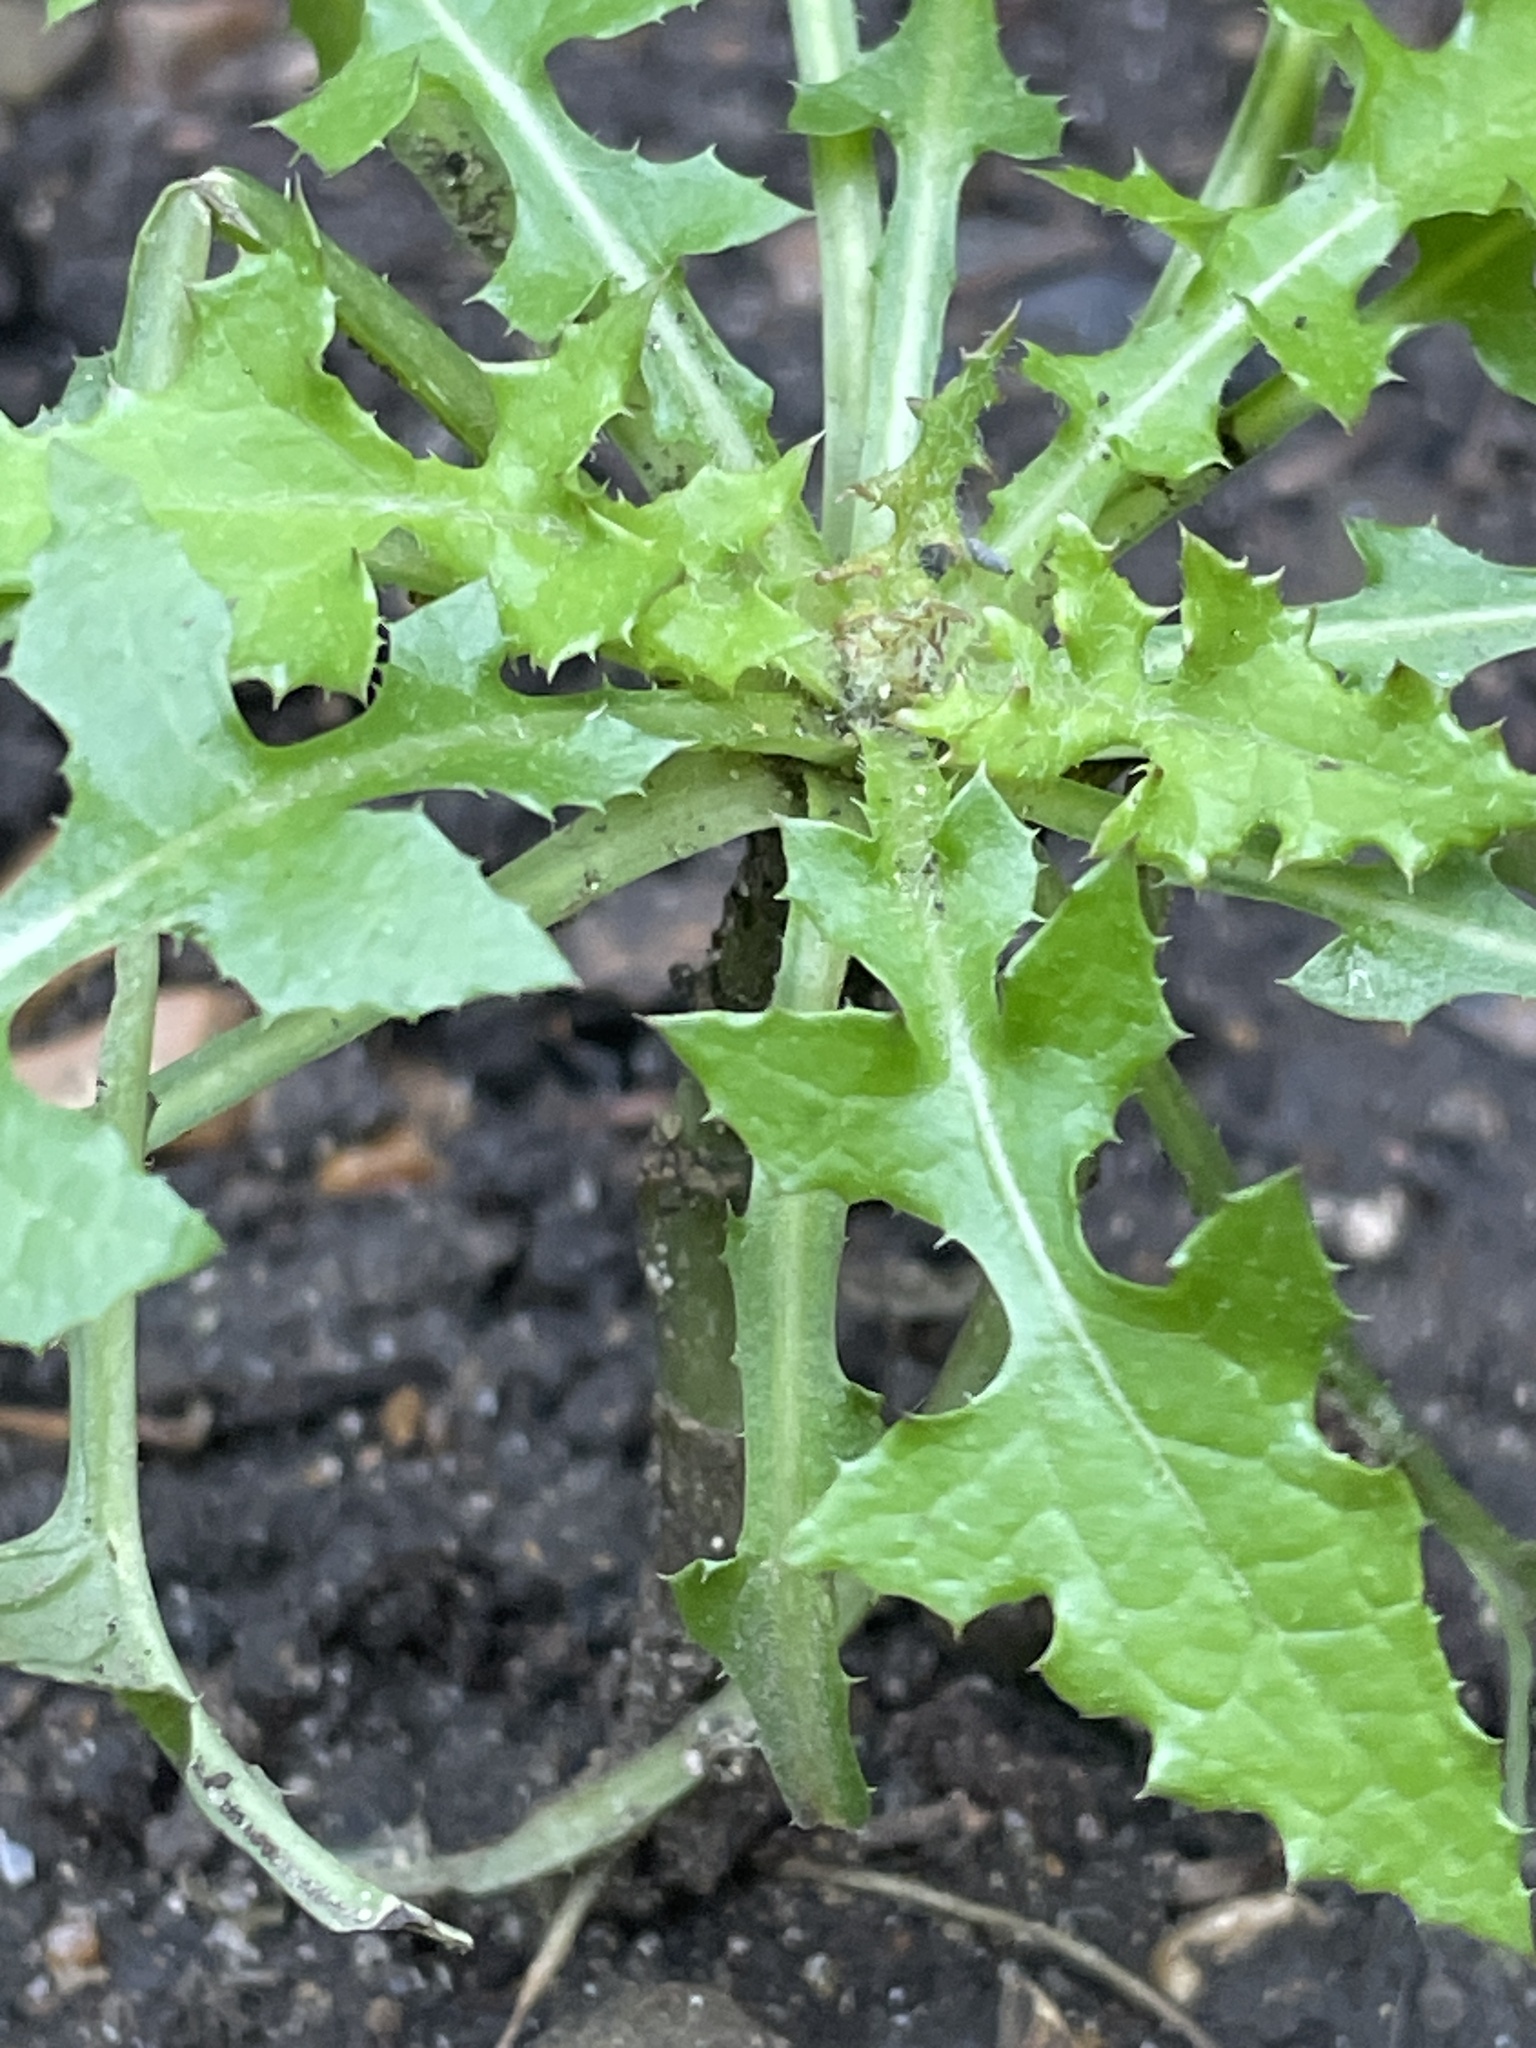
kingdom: Plantae
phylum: Tracheophyta
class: Magnoliopsida
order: Asterales
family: Asteraceae
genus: Sonchus
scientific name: Sonchus oleraceus
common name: Common sowthistle
